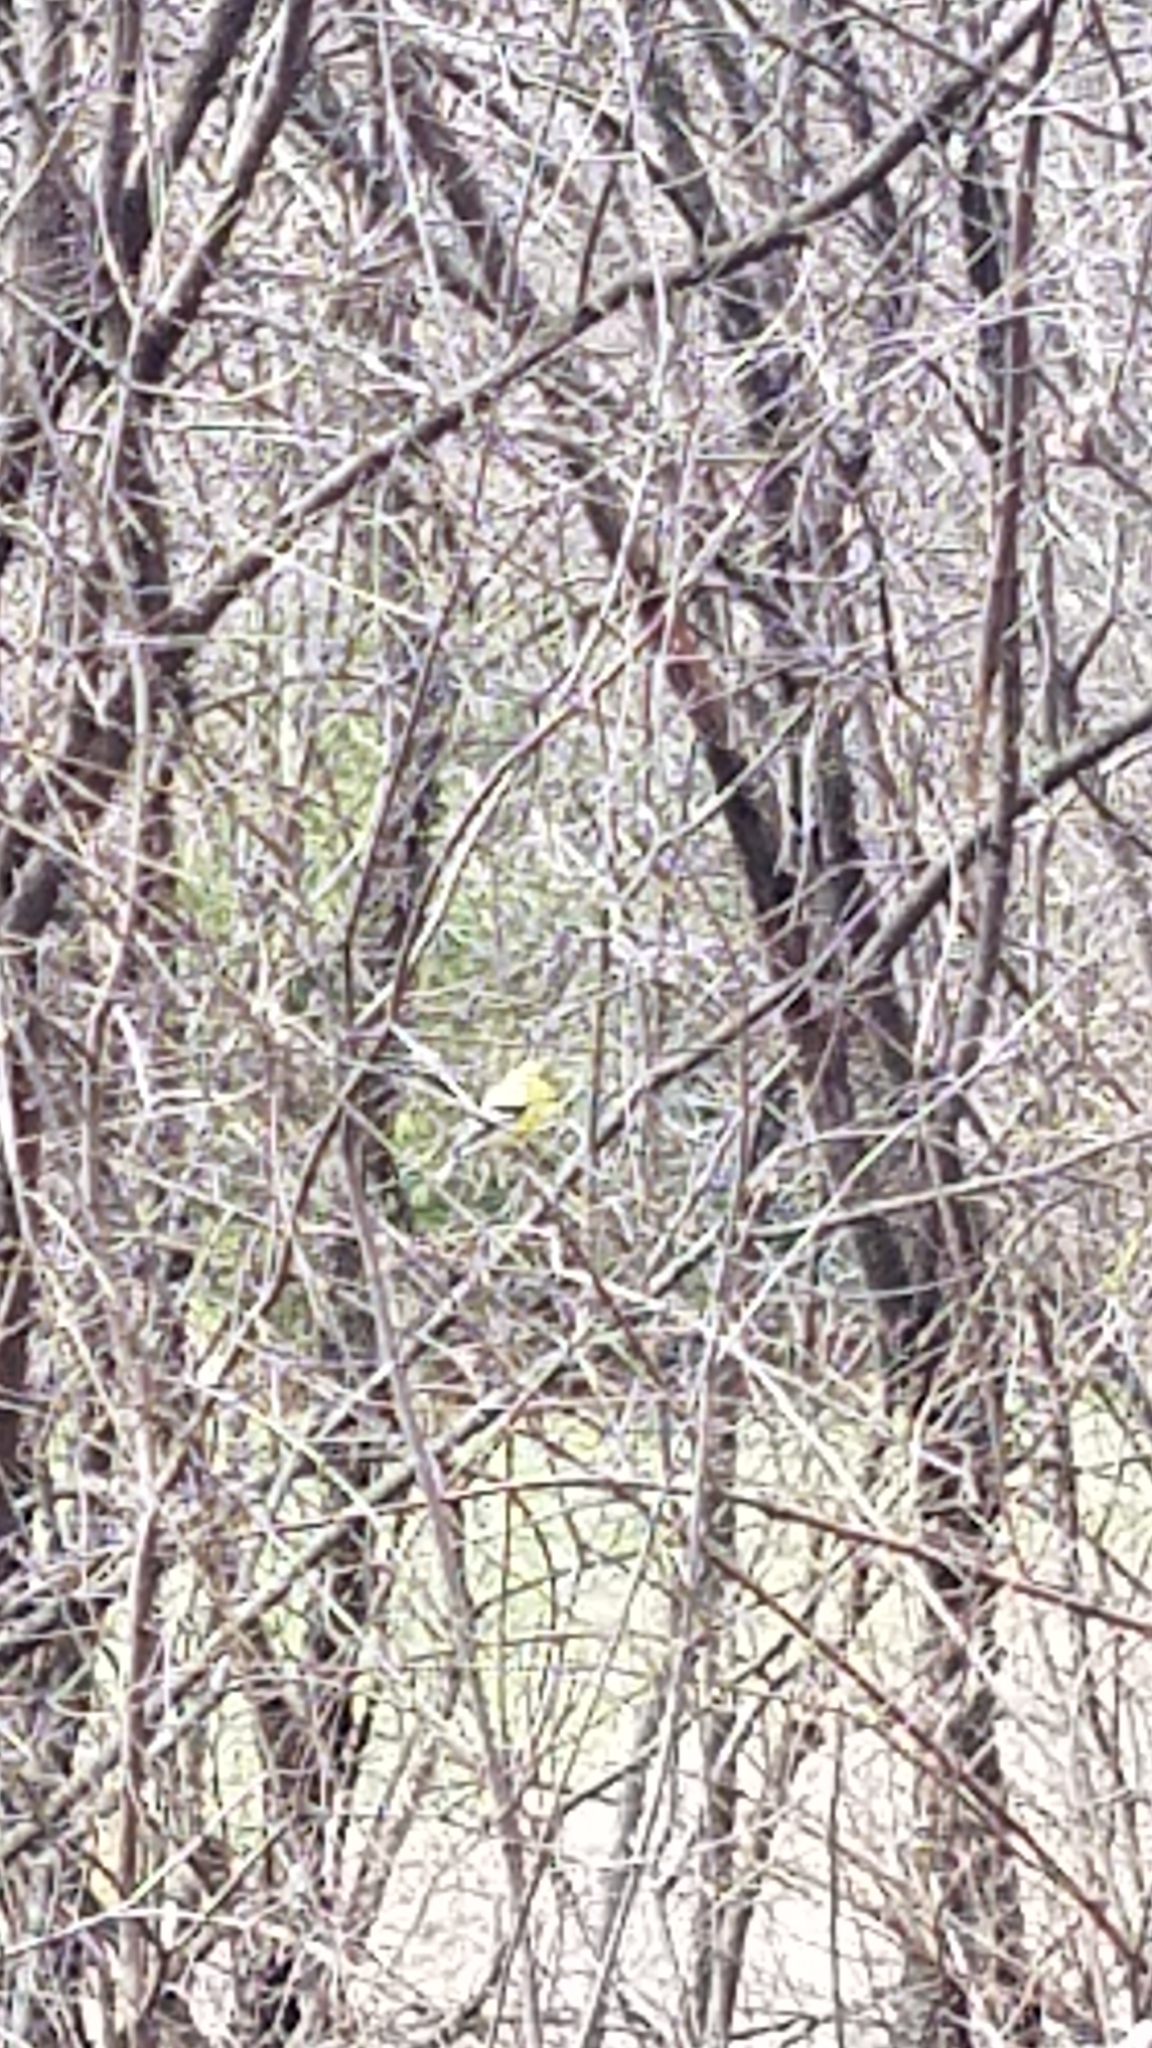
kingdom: Animalia
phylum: Chordata
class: Aves
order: Passeriformes
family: Fringillidae
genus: Spinus
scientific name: Spinus tristis
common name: American goldfinch
